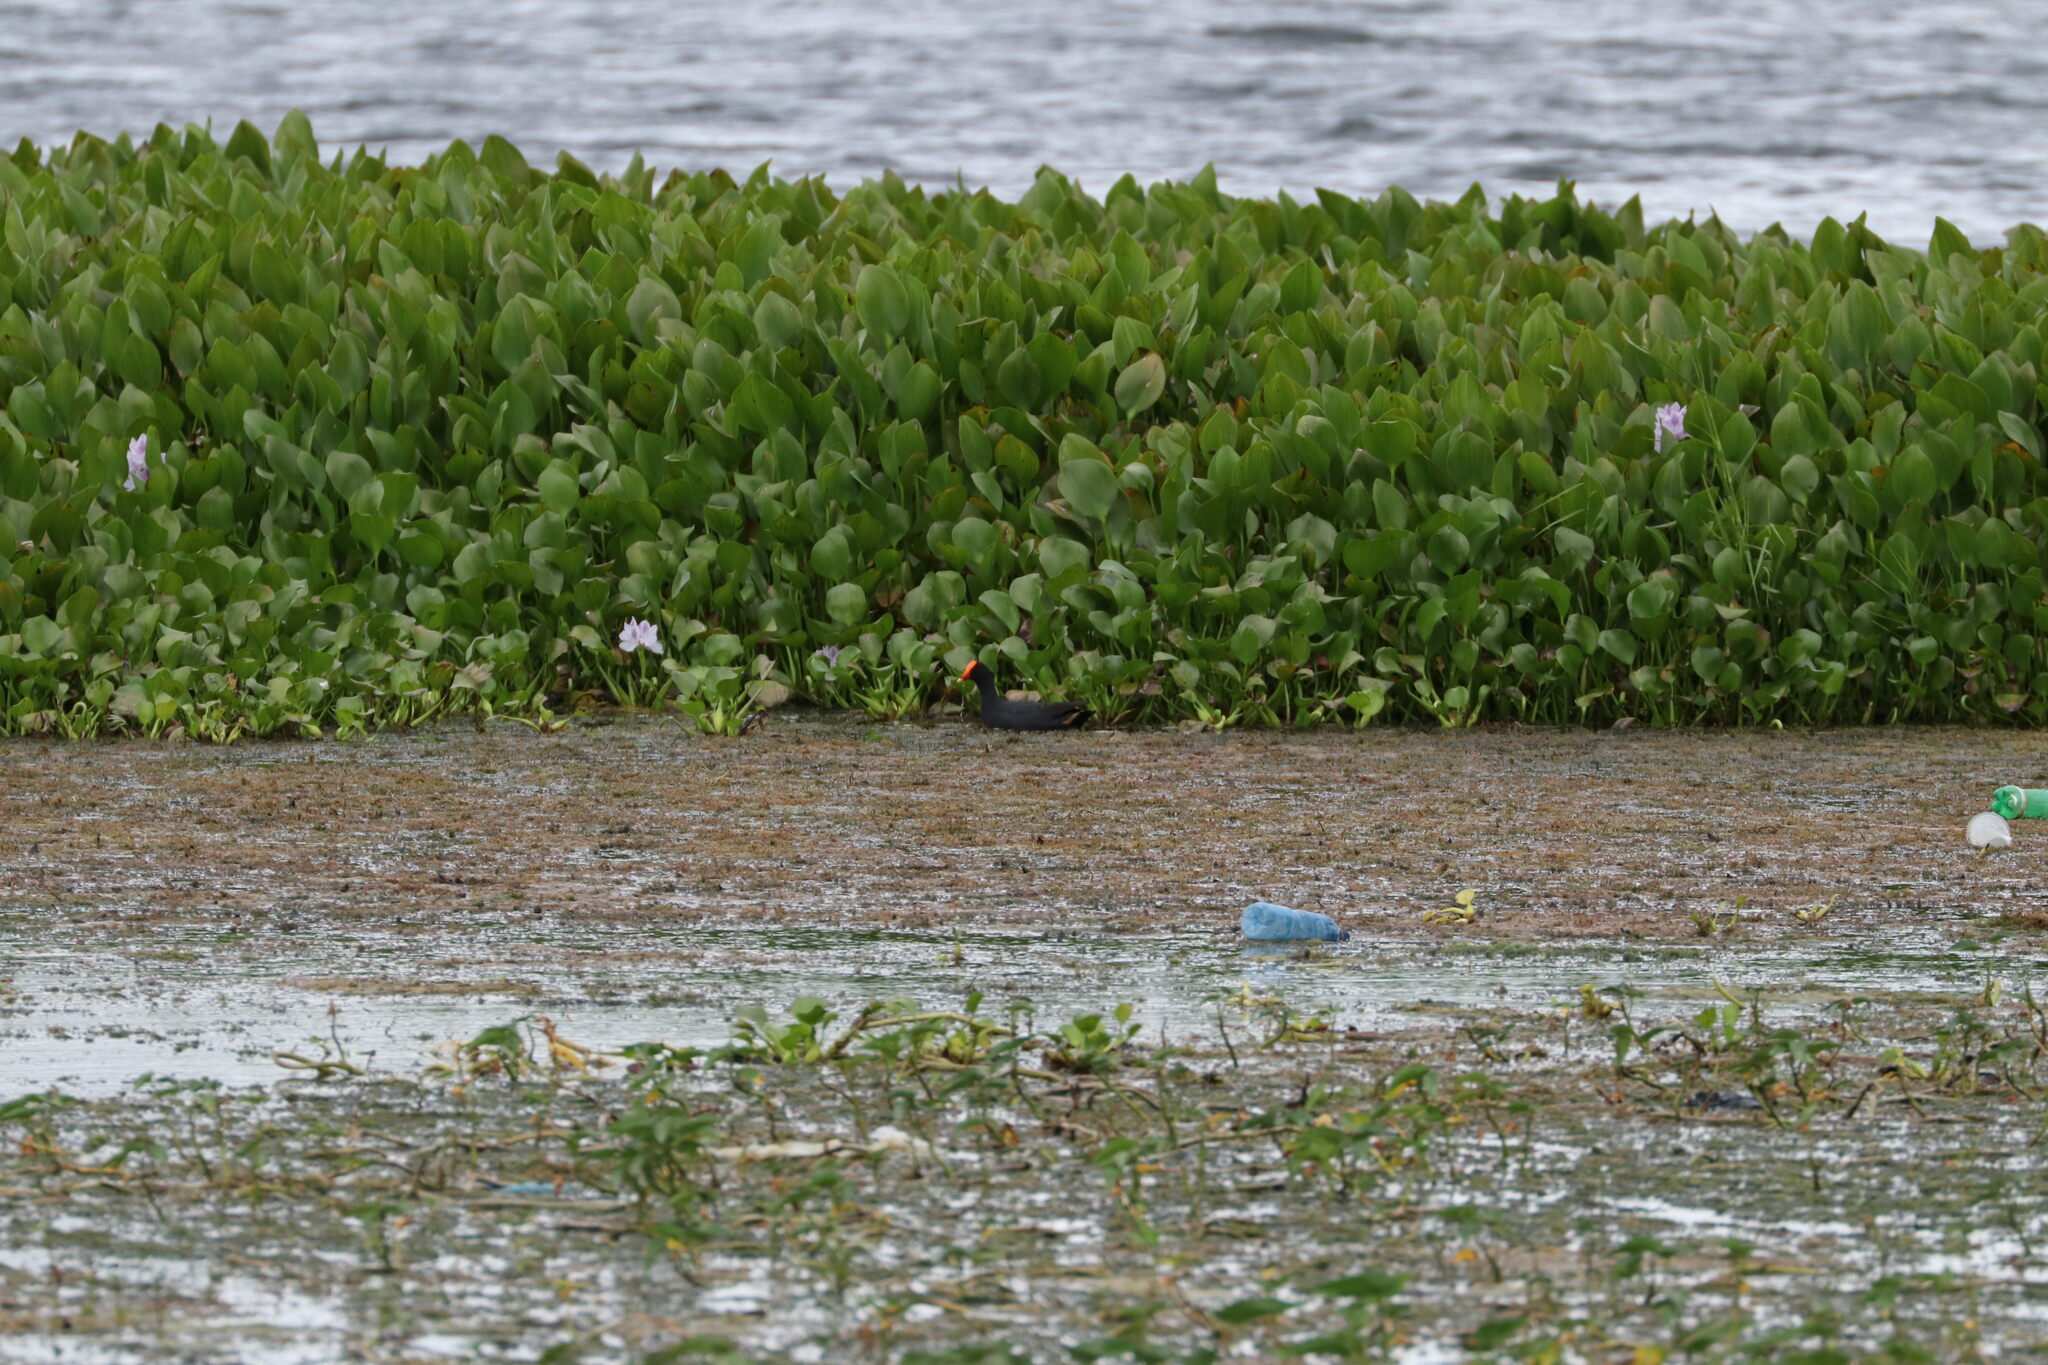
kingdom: Animalia
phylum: Chordata
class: Aves
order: Gruiformes
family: Rallidae
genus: Gallinula
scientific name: Gallinula chloropus
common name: Common moorhen
